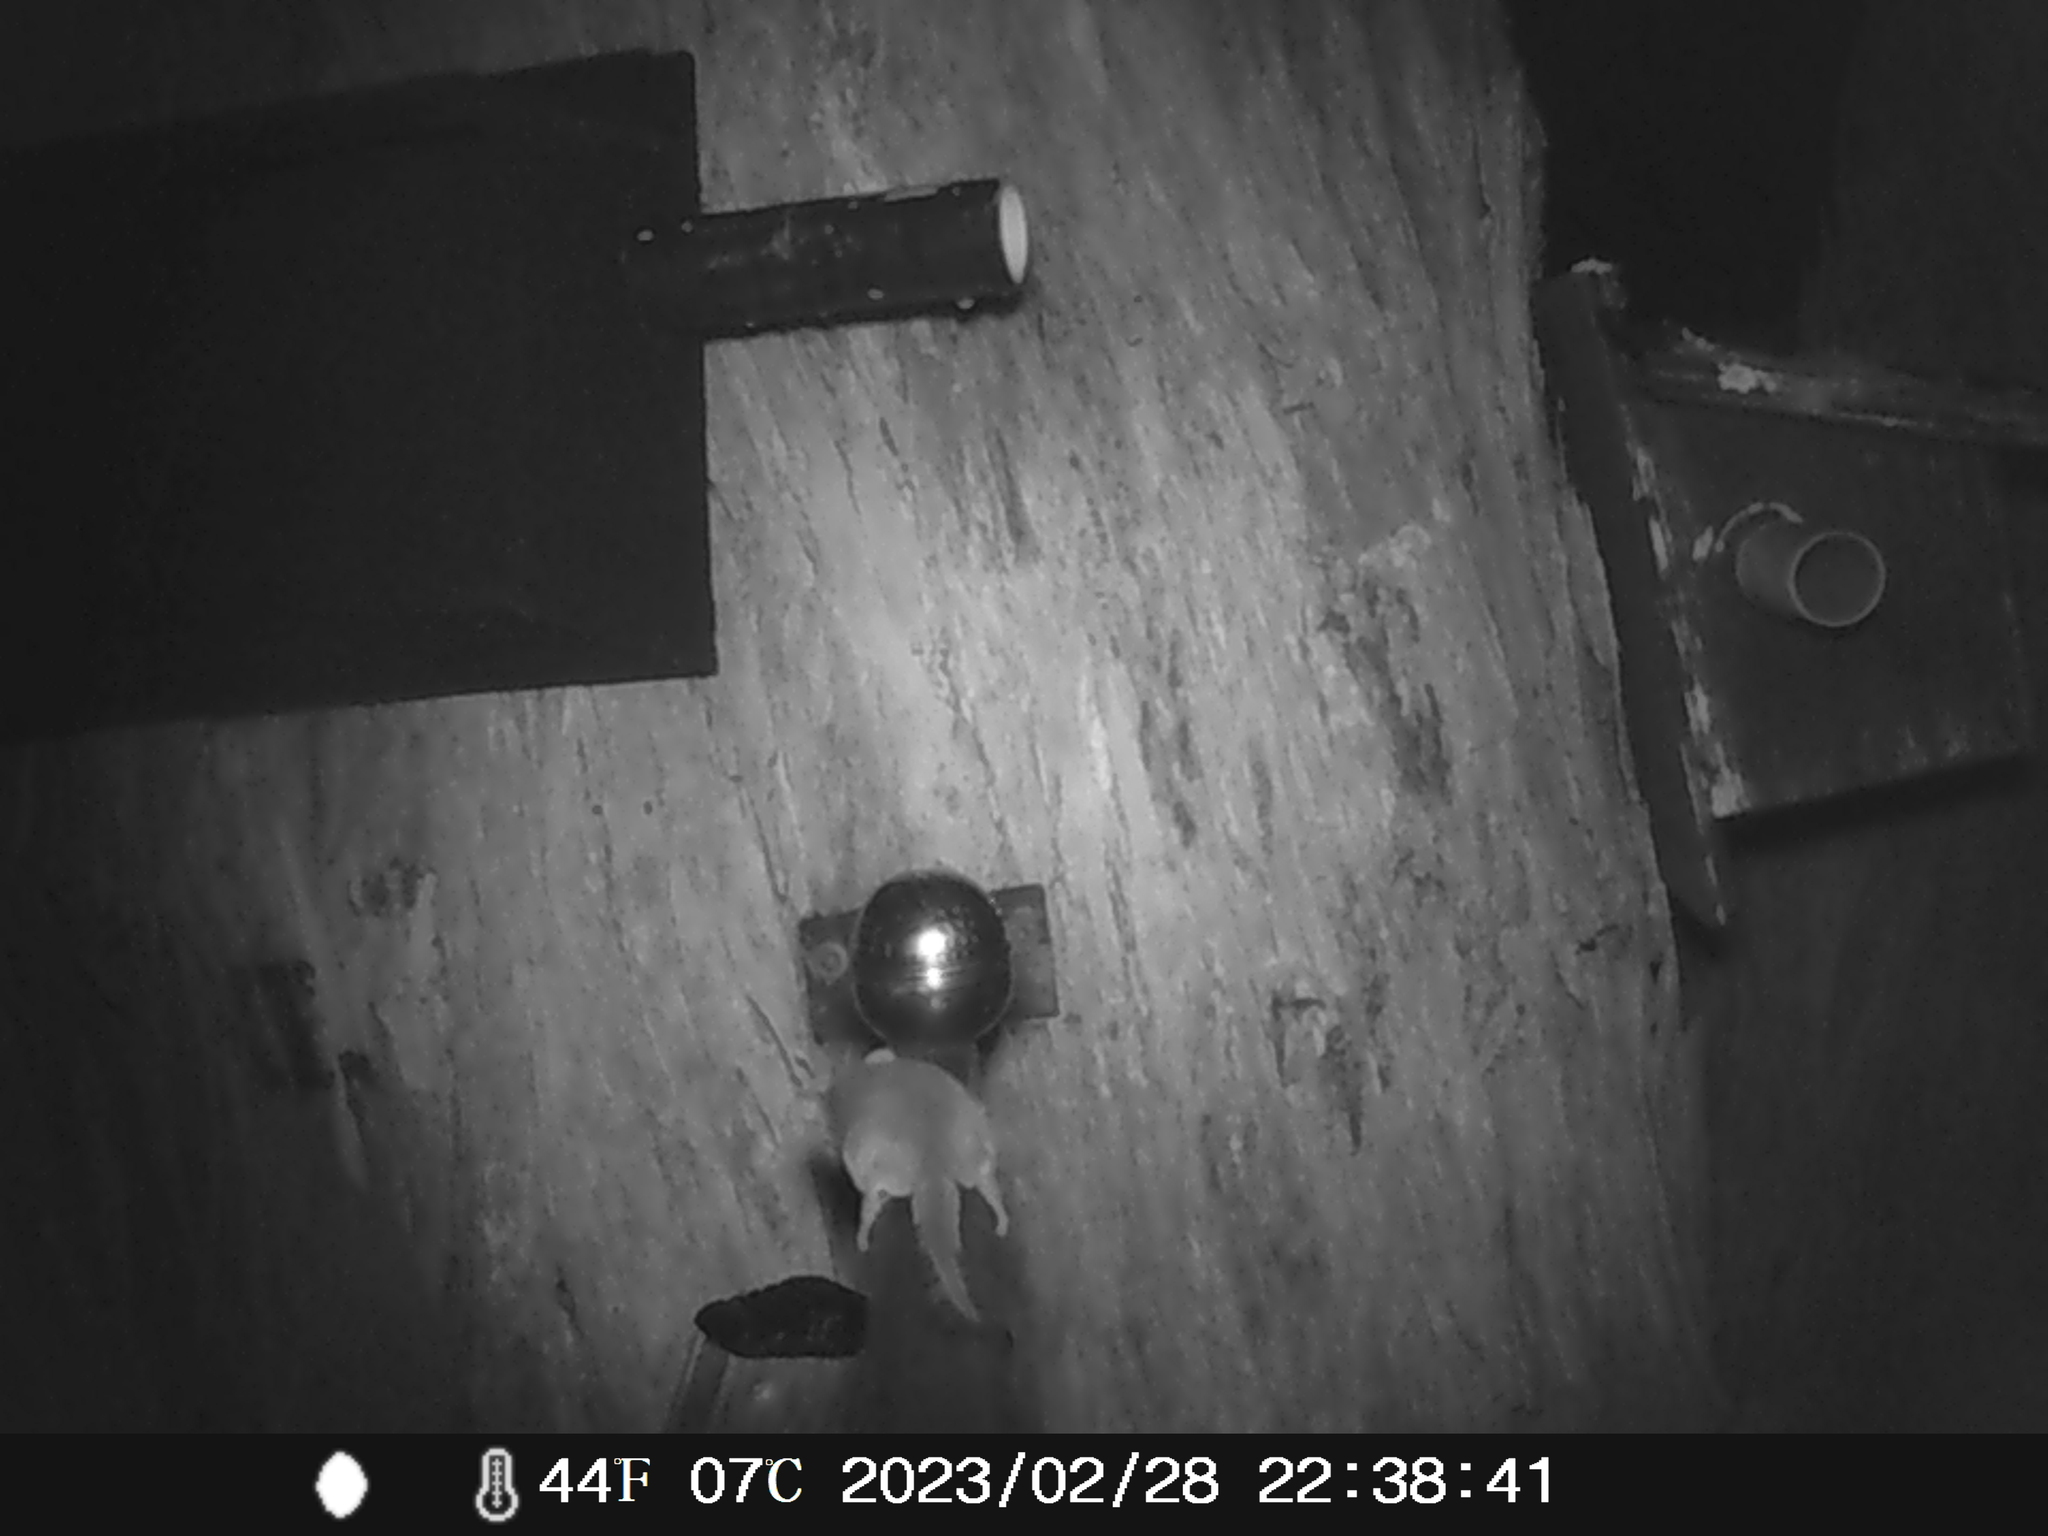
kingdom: Animalia
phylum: Chordata
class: Mammalia
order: Diprotodontia
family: Acrobatidae
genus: Acrobates
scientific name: Acrobates pygmaeus
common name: Feathertail glider
